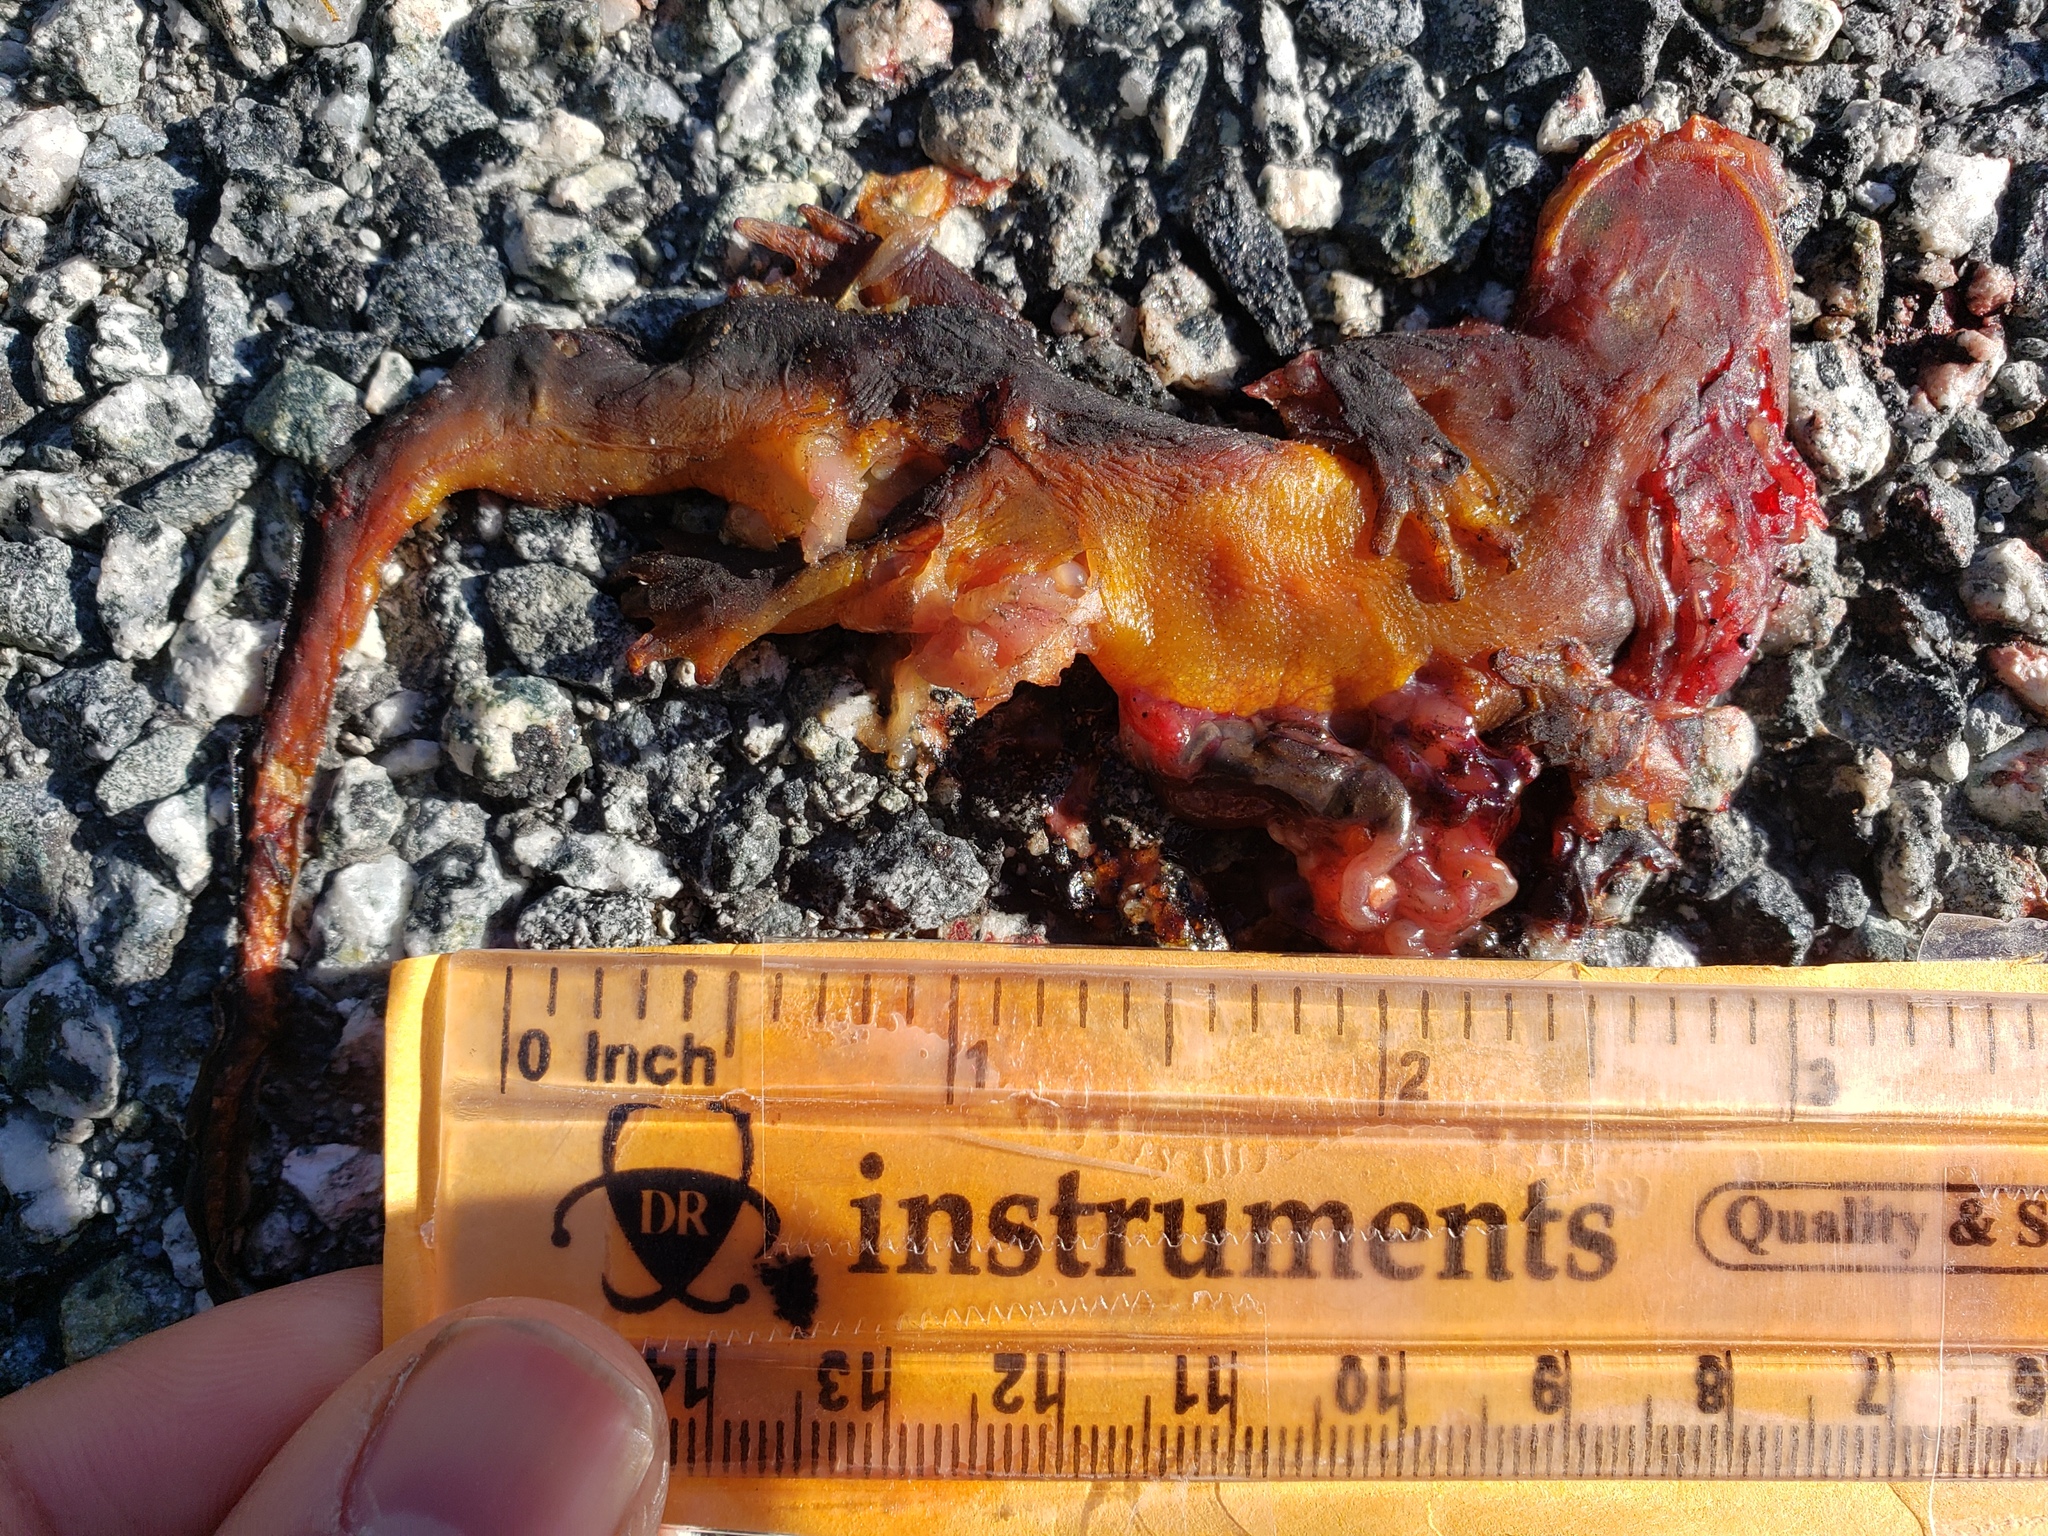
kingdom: Animalia
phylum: Chordata
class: Amphibia
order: Caudata
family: Salamandridae
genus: Taricha
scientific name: Taricha
